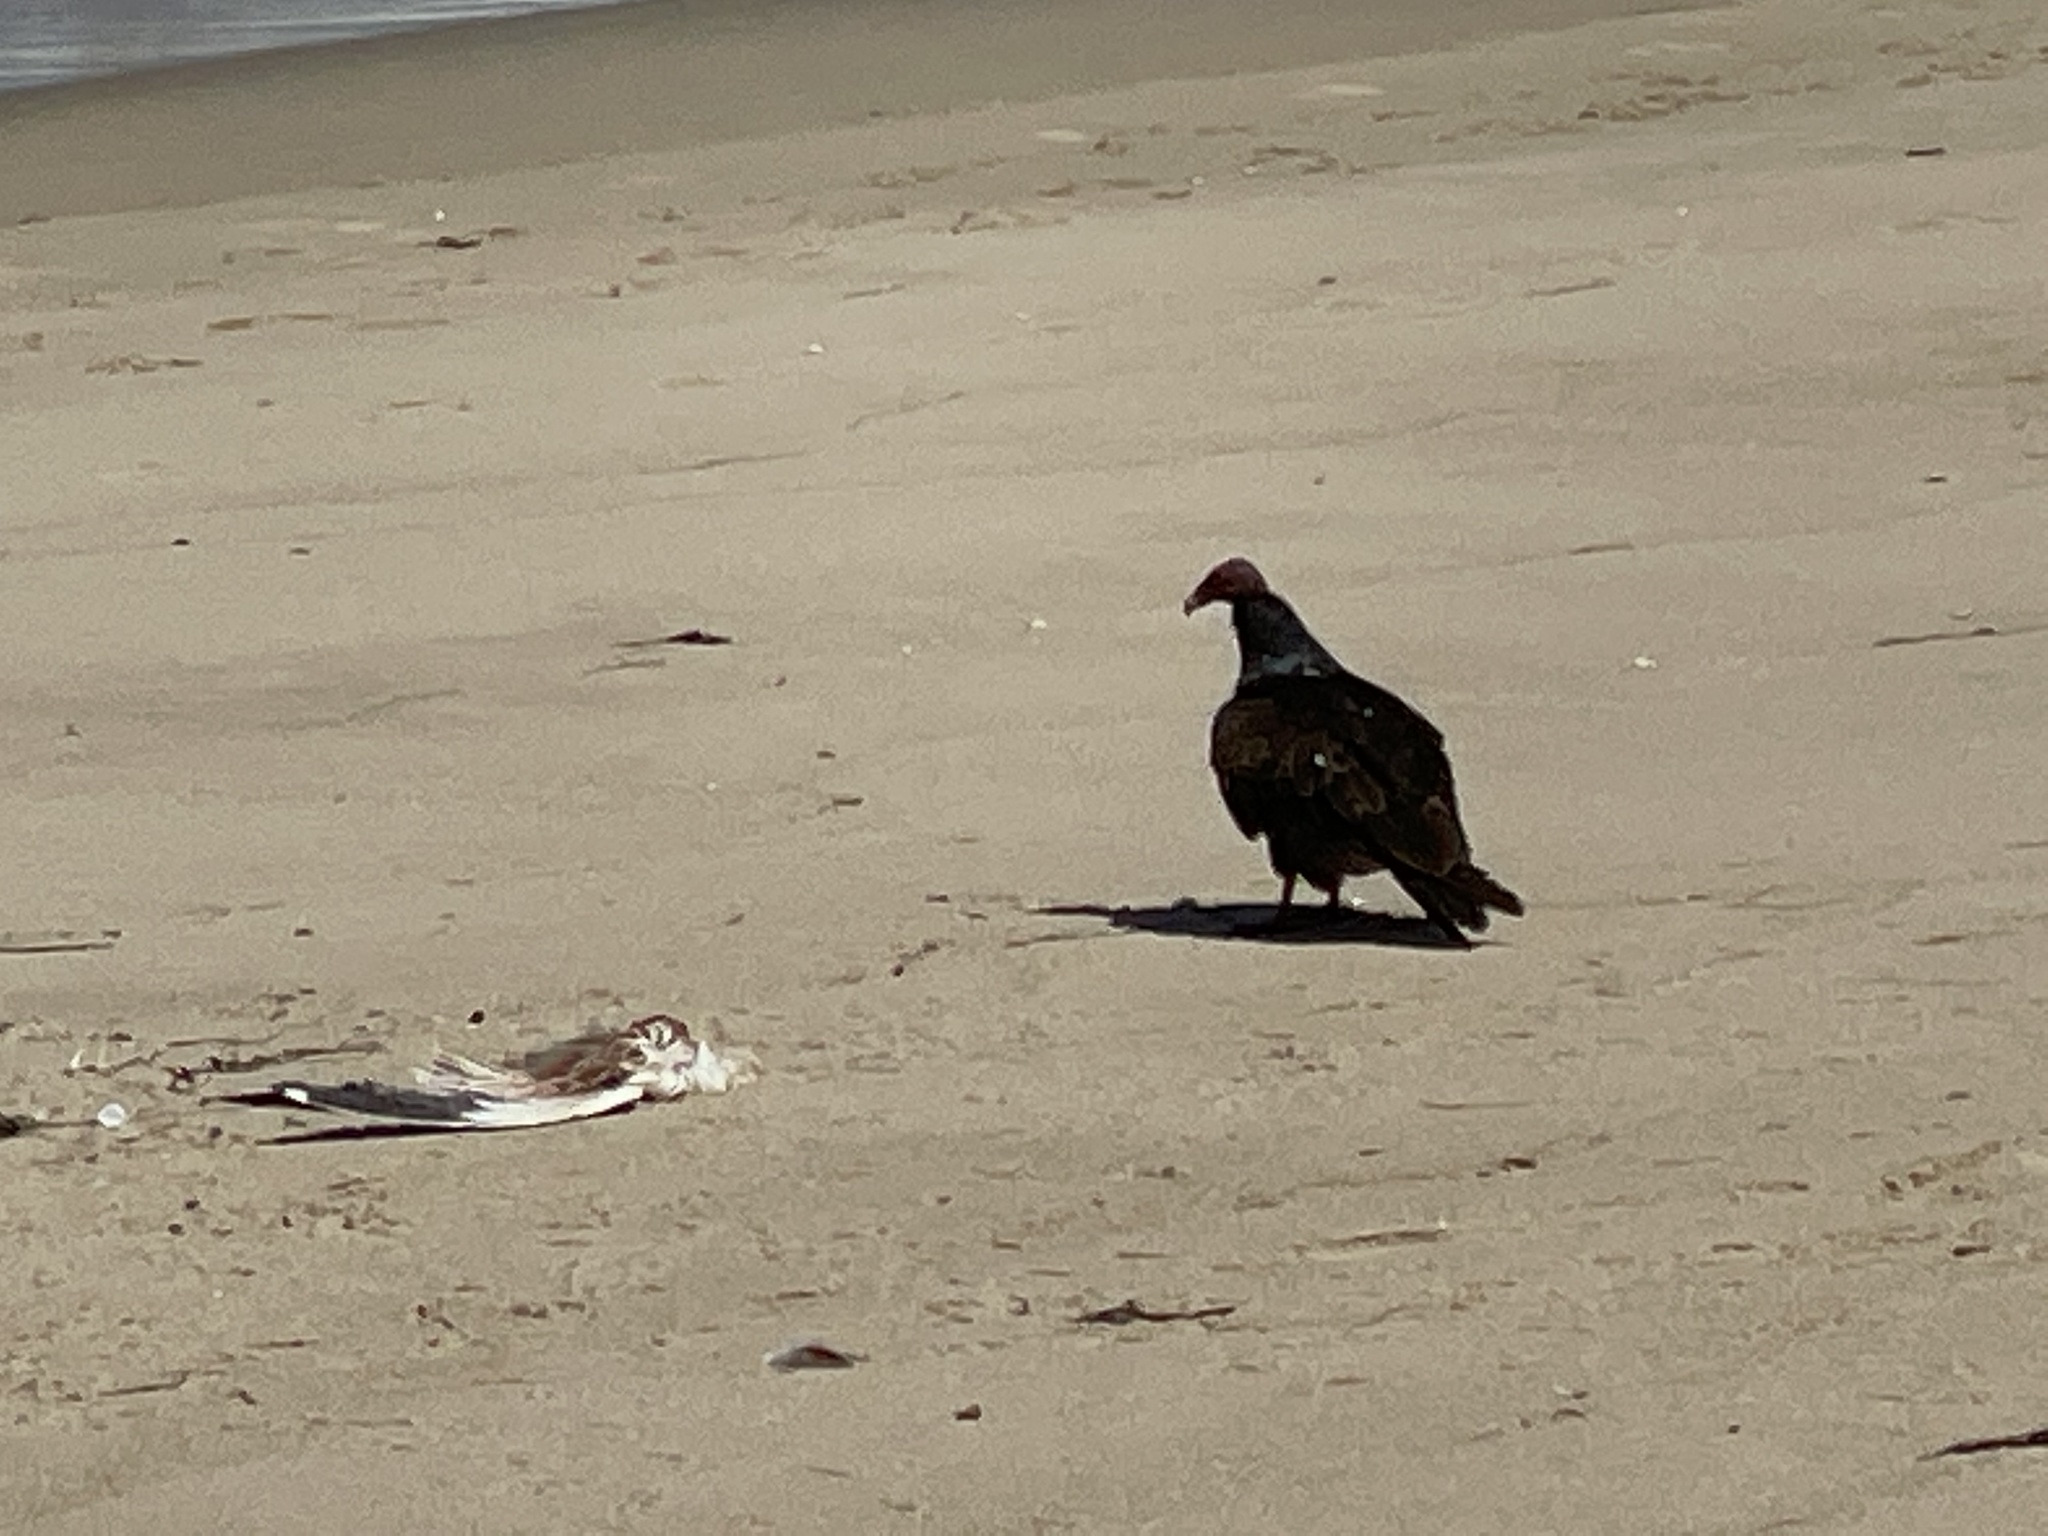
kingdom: Animalia
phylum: Chordata
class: Aves
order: Accipitriformes
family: Cathartidae
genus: Cathartes
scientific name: Cathartes aura
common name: Turkey vulture
